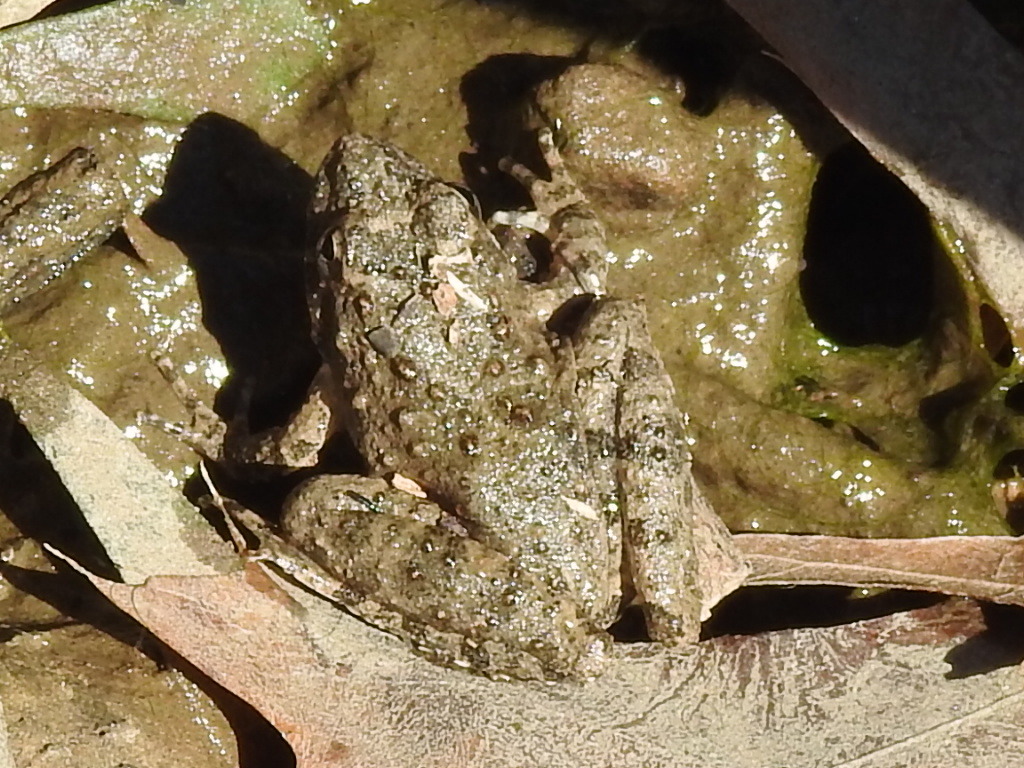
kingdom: Animalia
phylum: Chordata
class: Amphibia
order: Anura
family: Hylidae
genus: Acris
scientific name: Acris blanchardi
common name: Blanchard's cricket frog
